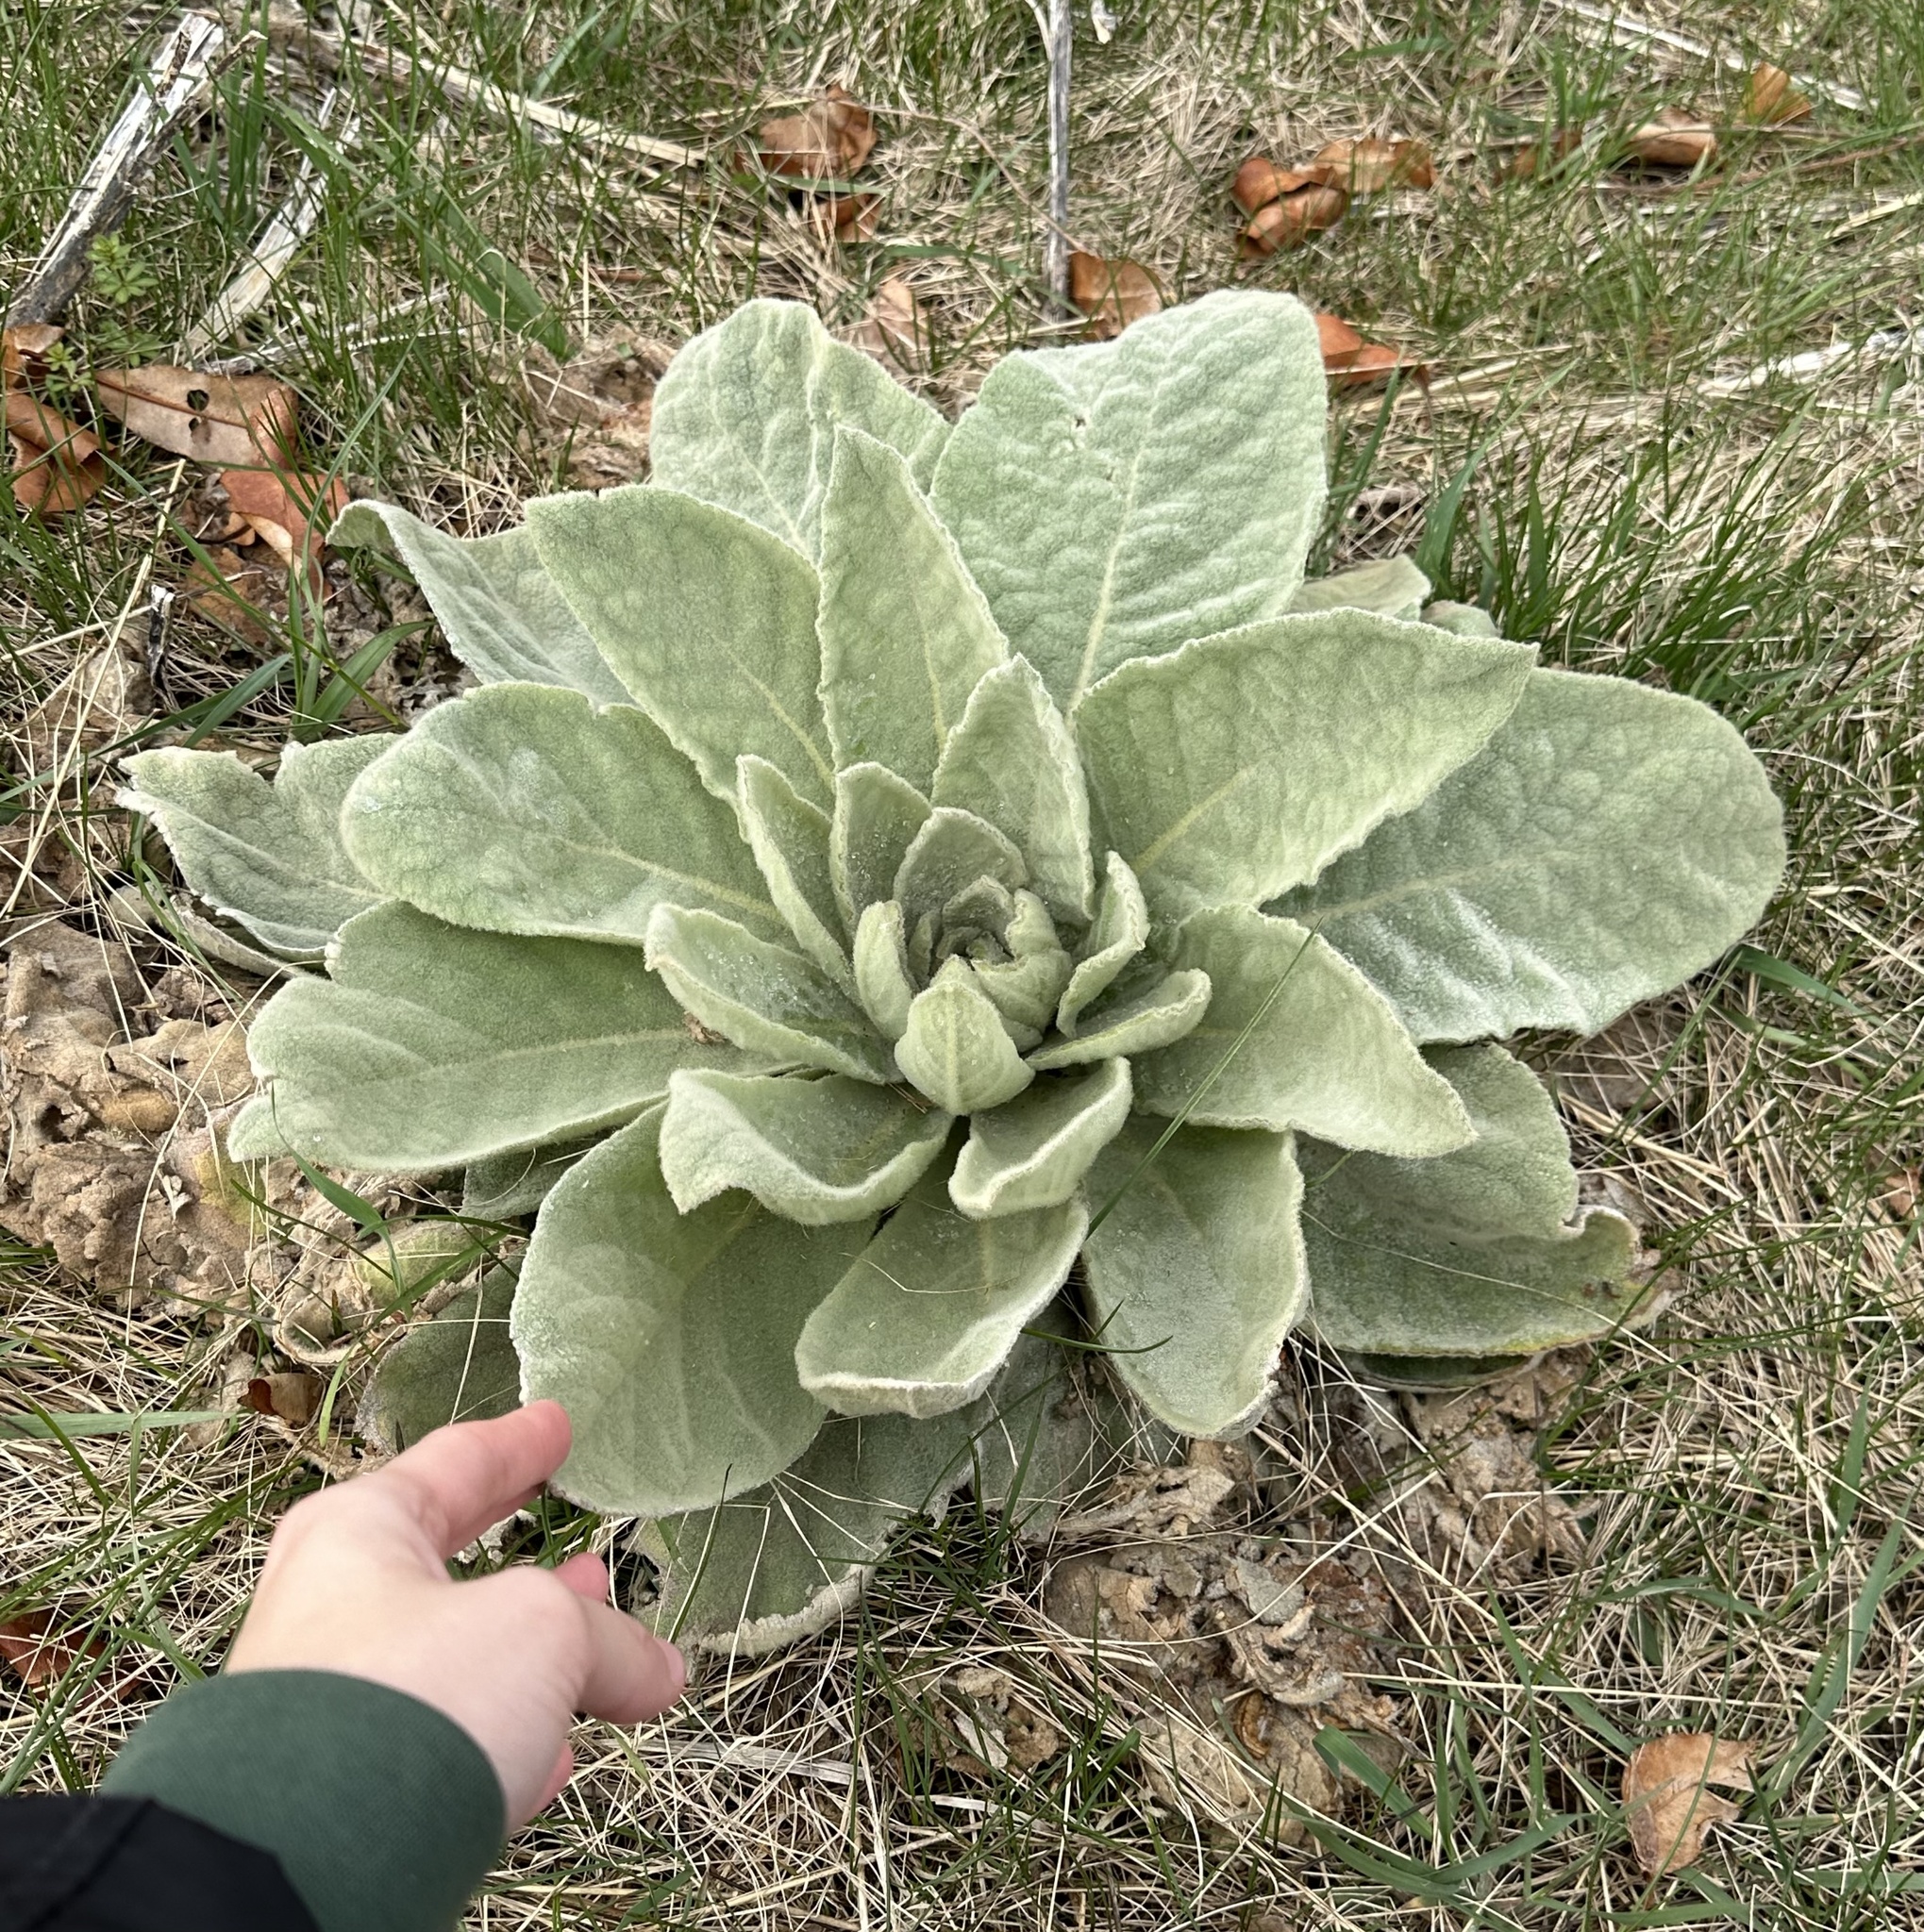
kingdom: Plantae
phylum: Tracheophyta
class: Magnoliopsida
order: Lamiales
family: Scrophulariaceae
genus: Verbascum
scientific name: Verbascum thapsus
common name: Common mullein
